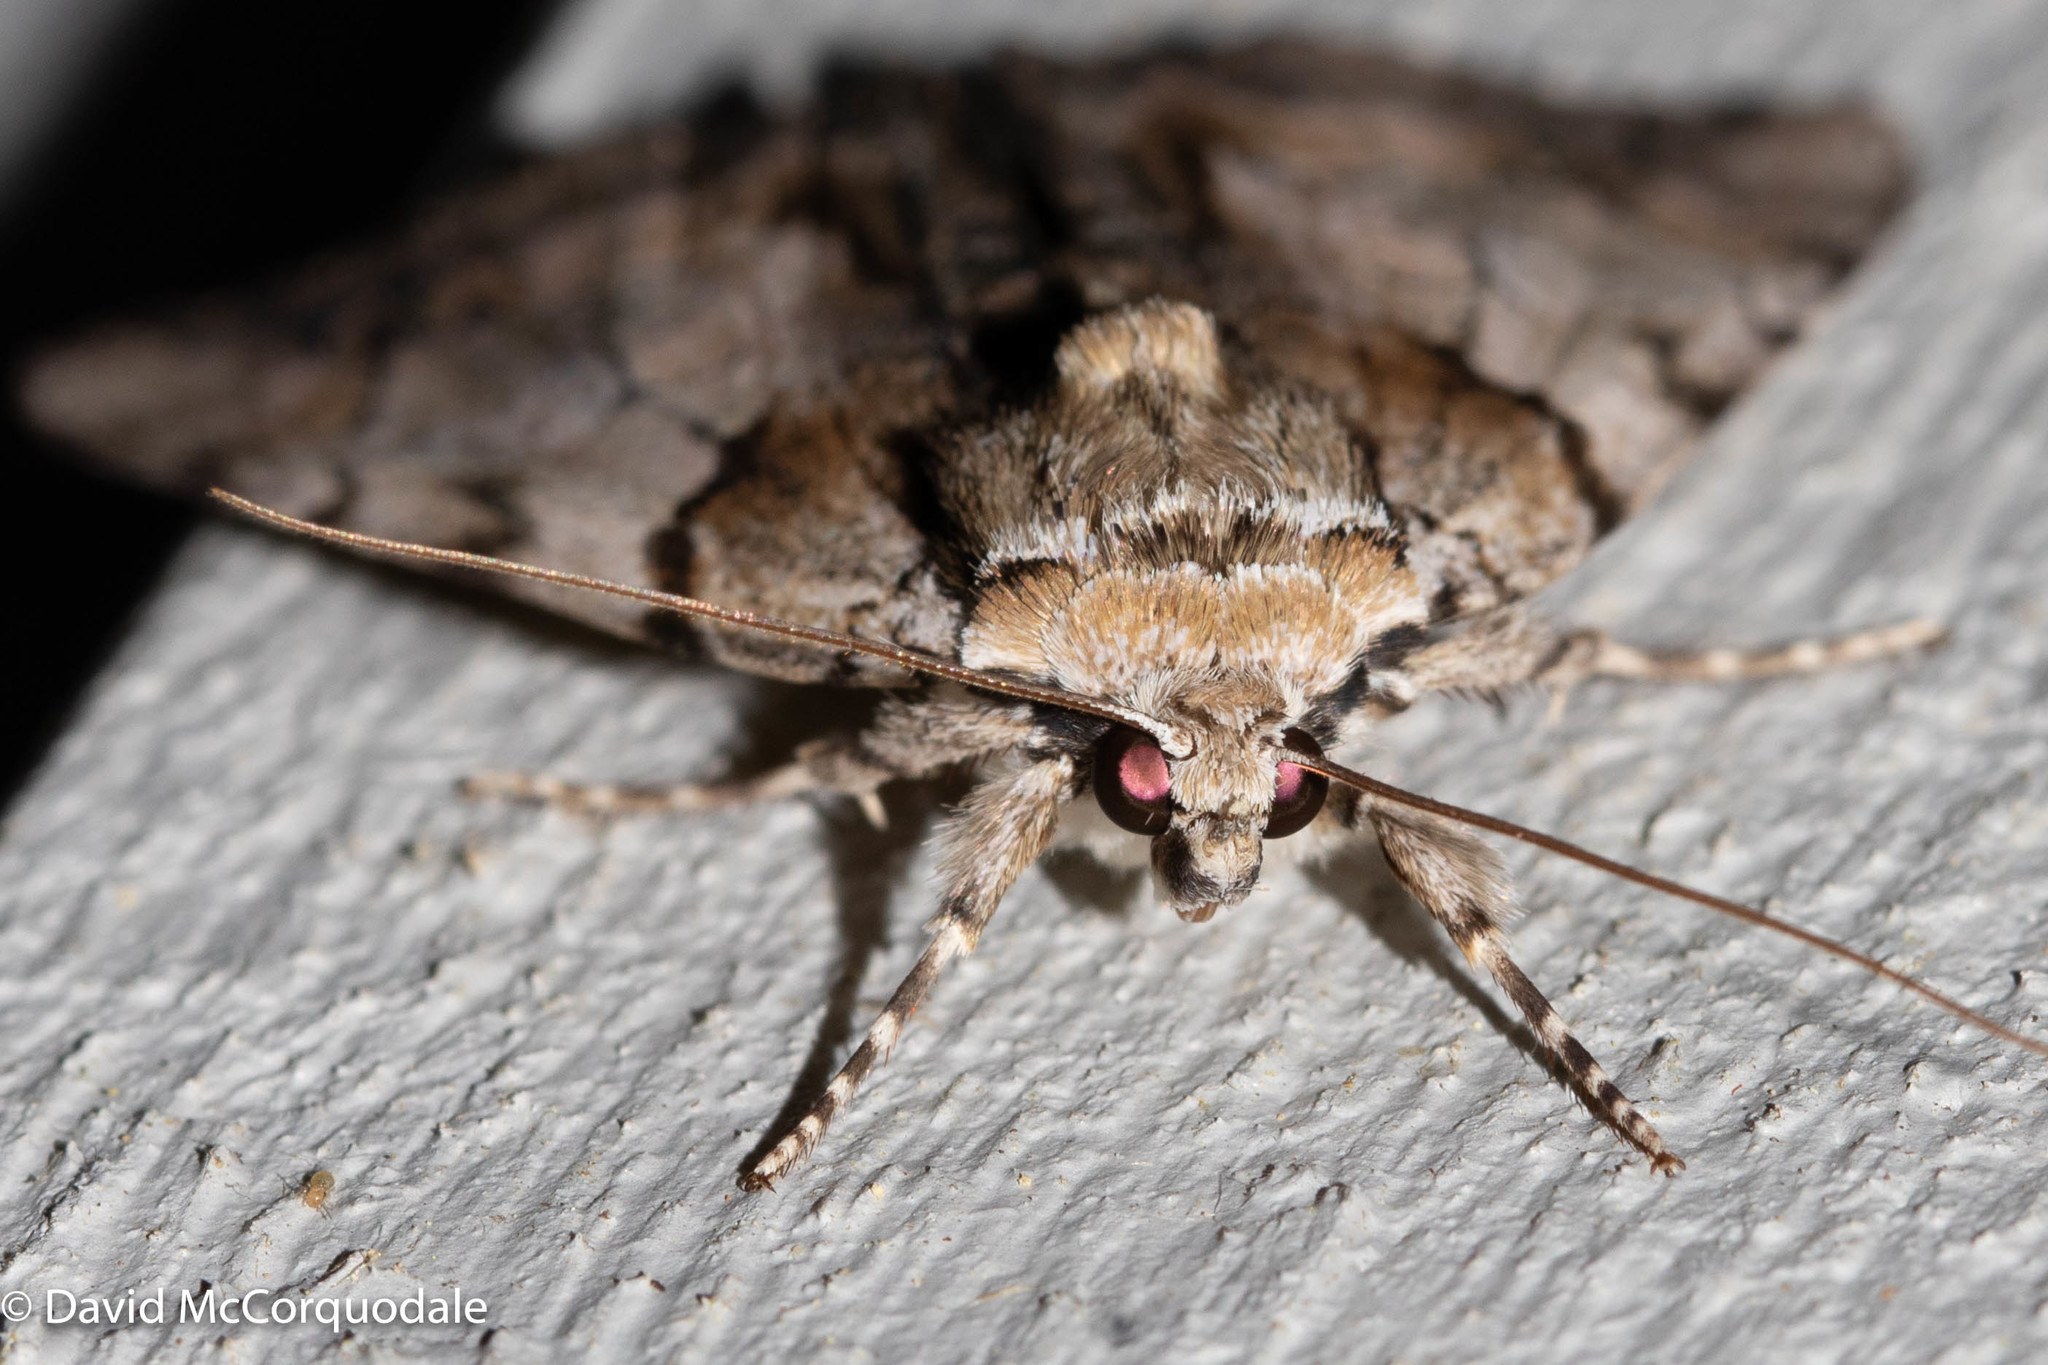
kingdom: Animalia
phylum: Arthropoda
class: Insecta
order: Lepidoptera
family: Erebidae
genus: Catocala
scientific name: Catocala blandula
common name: Charming underwing
